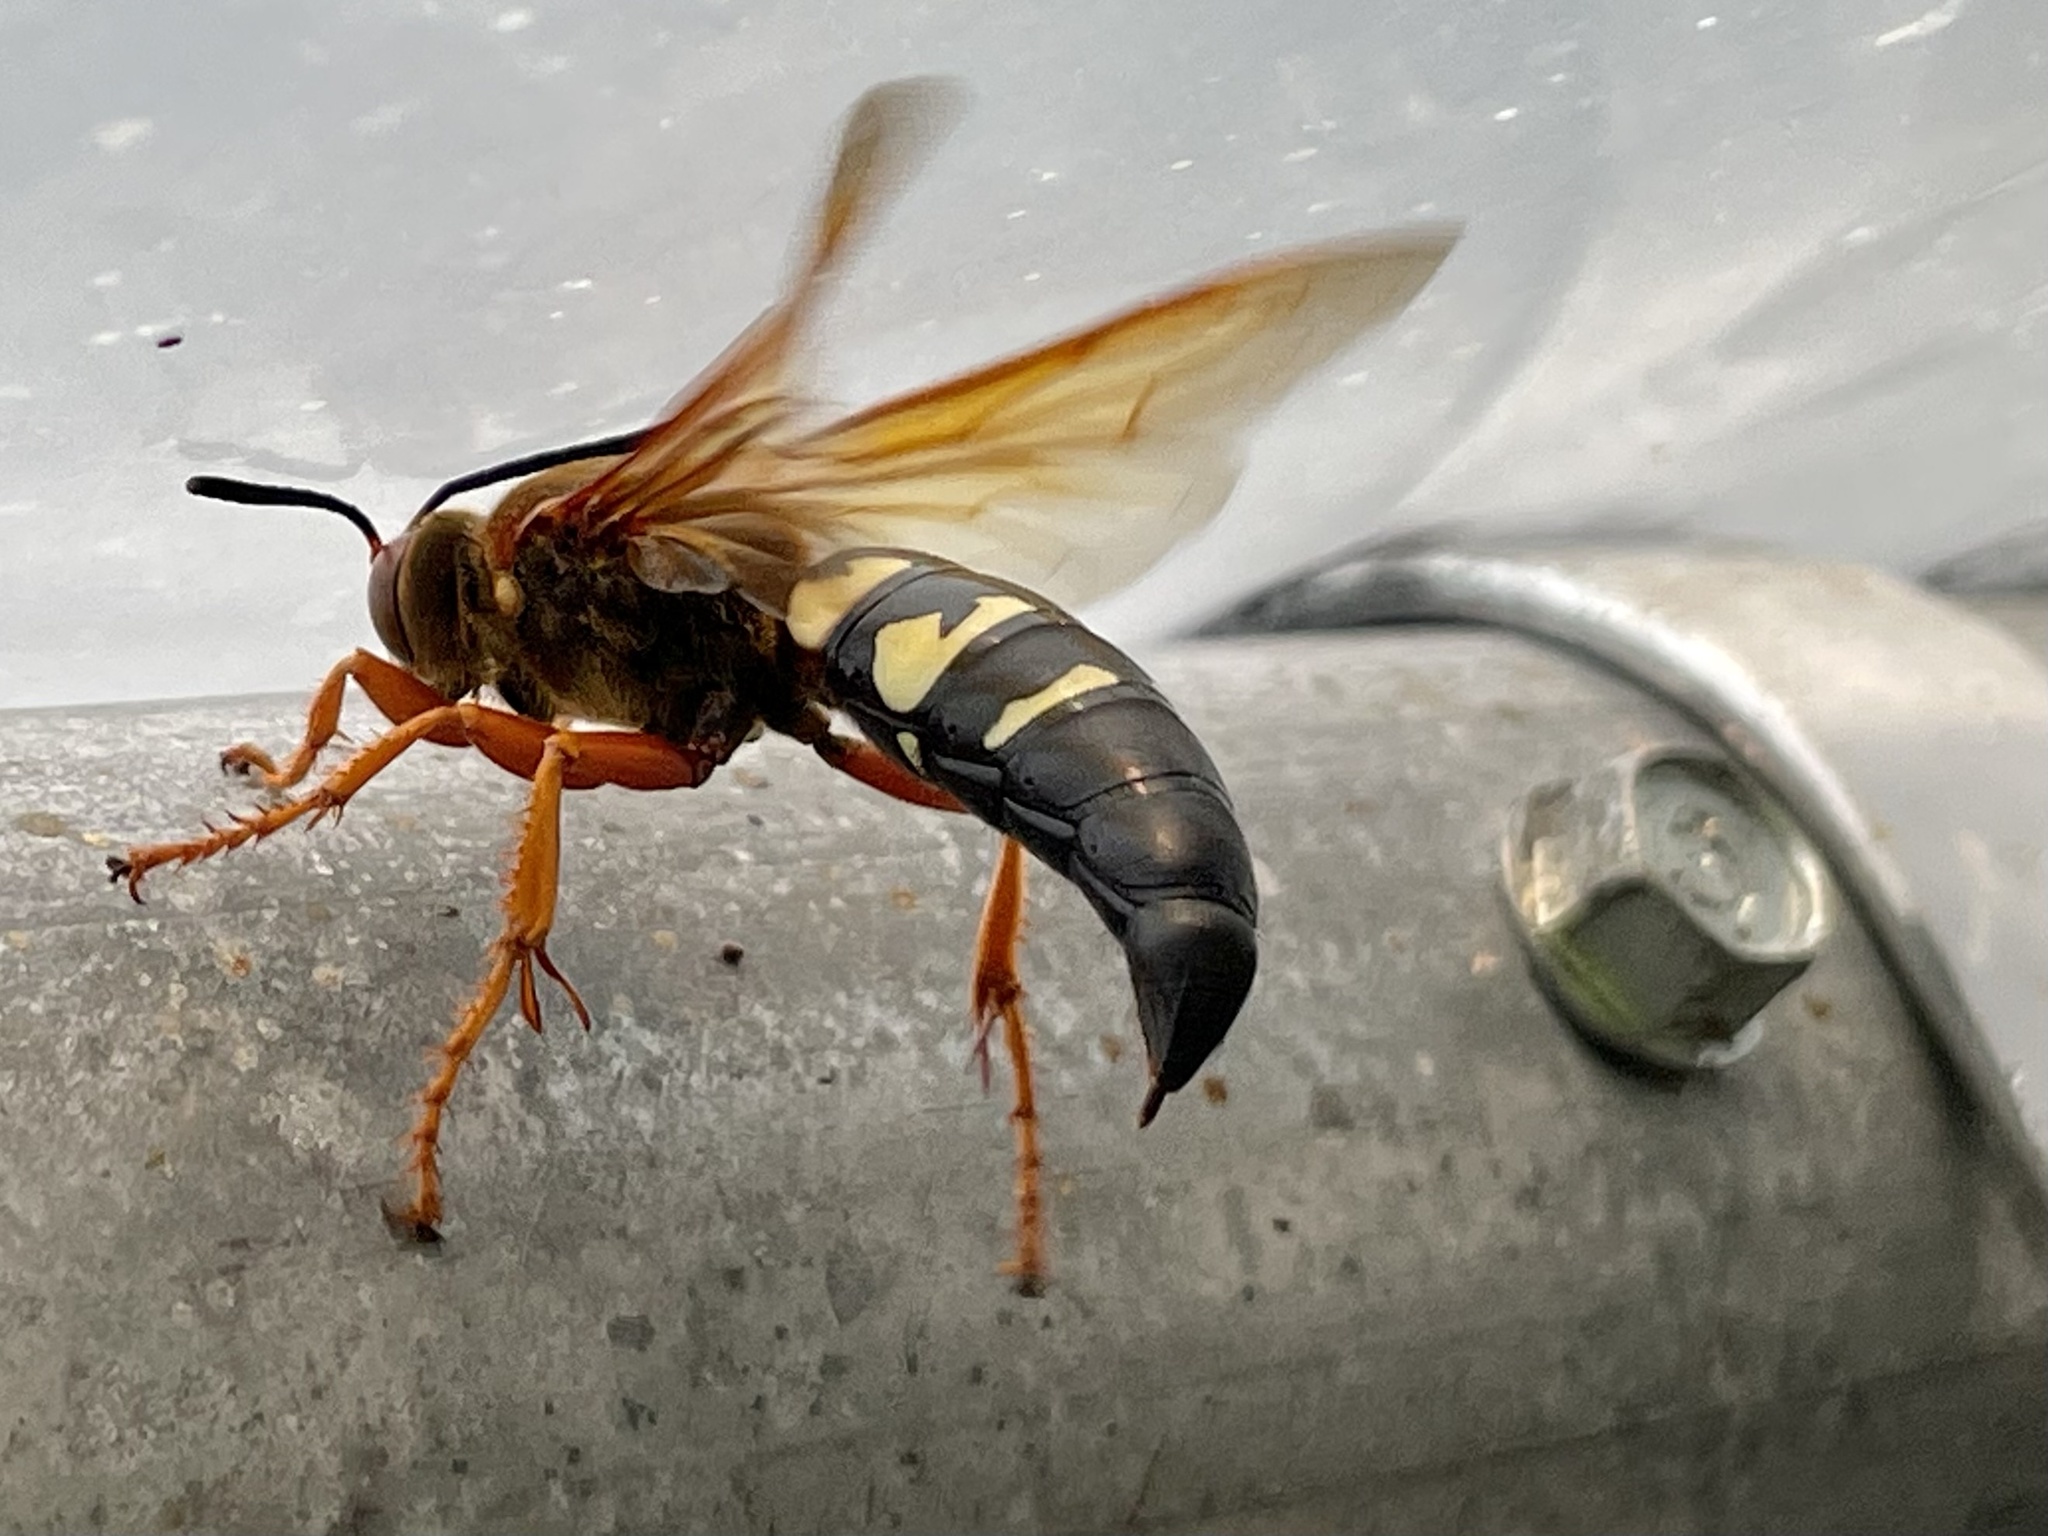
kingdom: Animalia
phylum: Arthropoda
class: Insecta
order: Hymenoptera
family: Crabronidae
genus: Sphecius
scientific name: Sphecius speciosus
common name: Cicada killer
